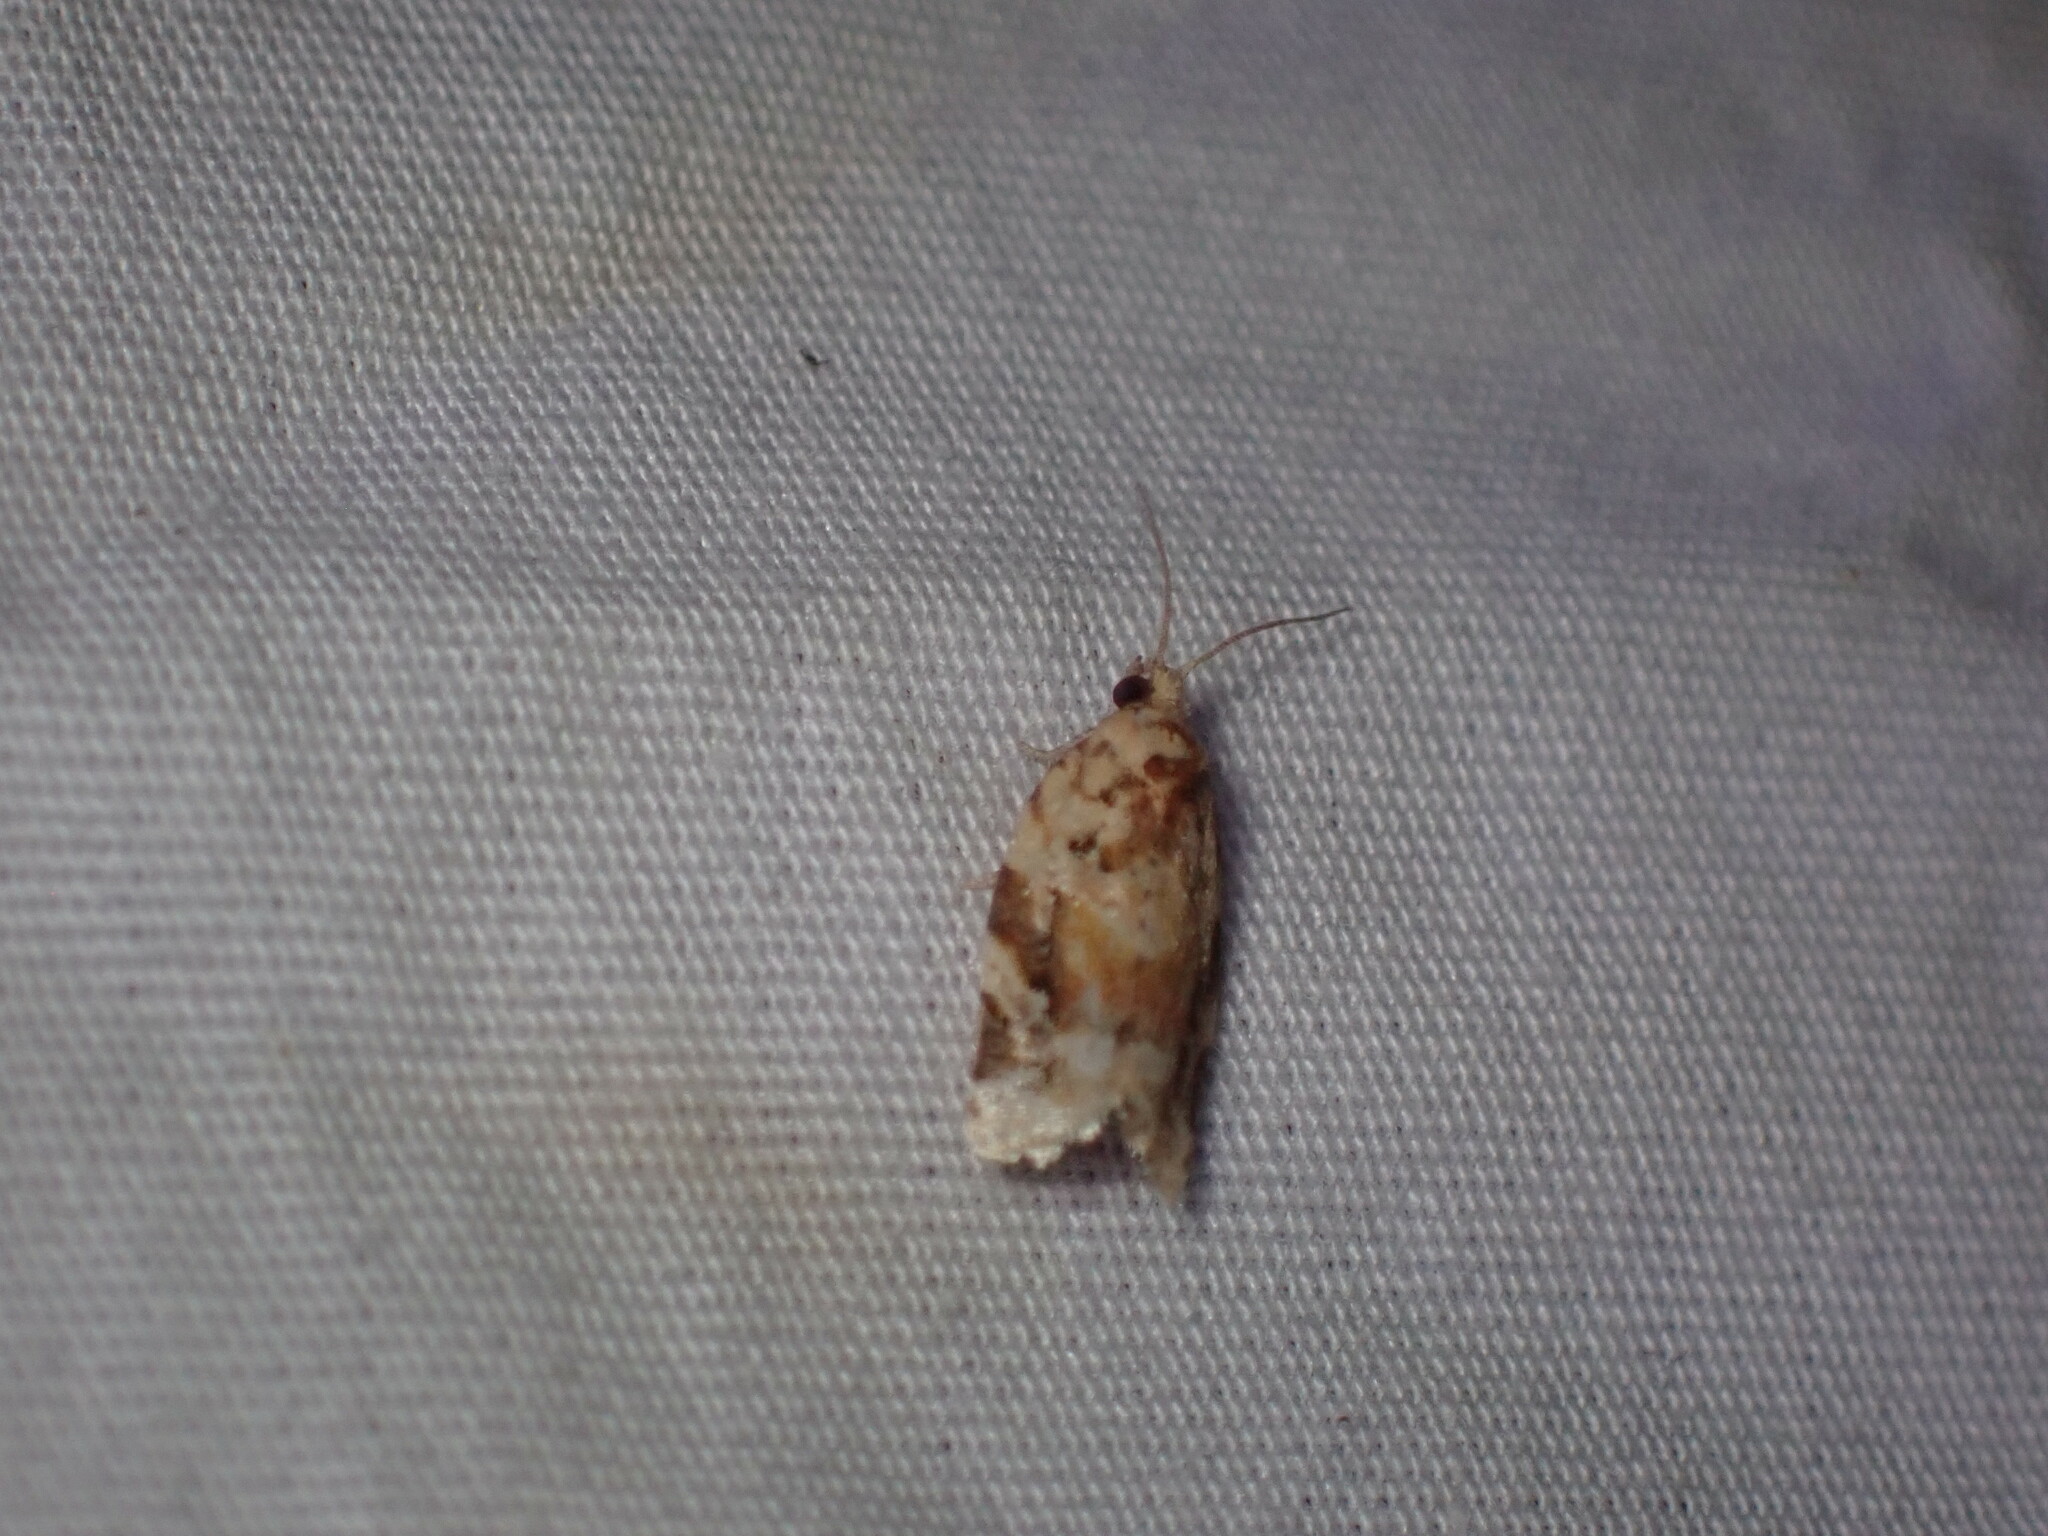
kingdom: Animalia
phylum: Arthropoda
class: Insecta
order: Lepidoptera
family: Tortricidae
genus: Argyrotaenia
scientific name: Argyrotaenia kimballi
